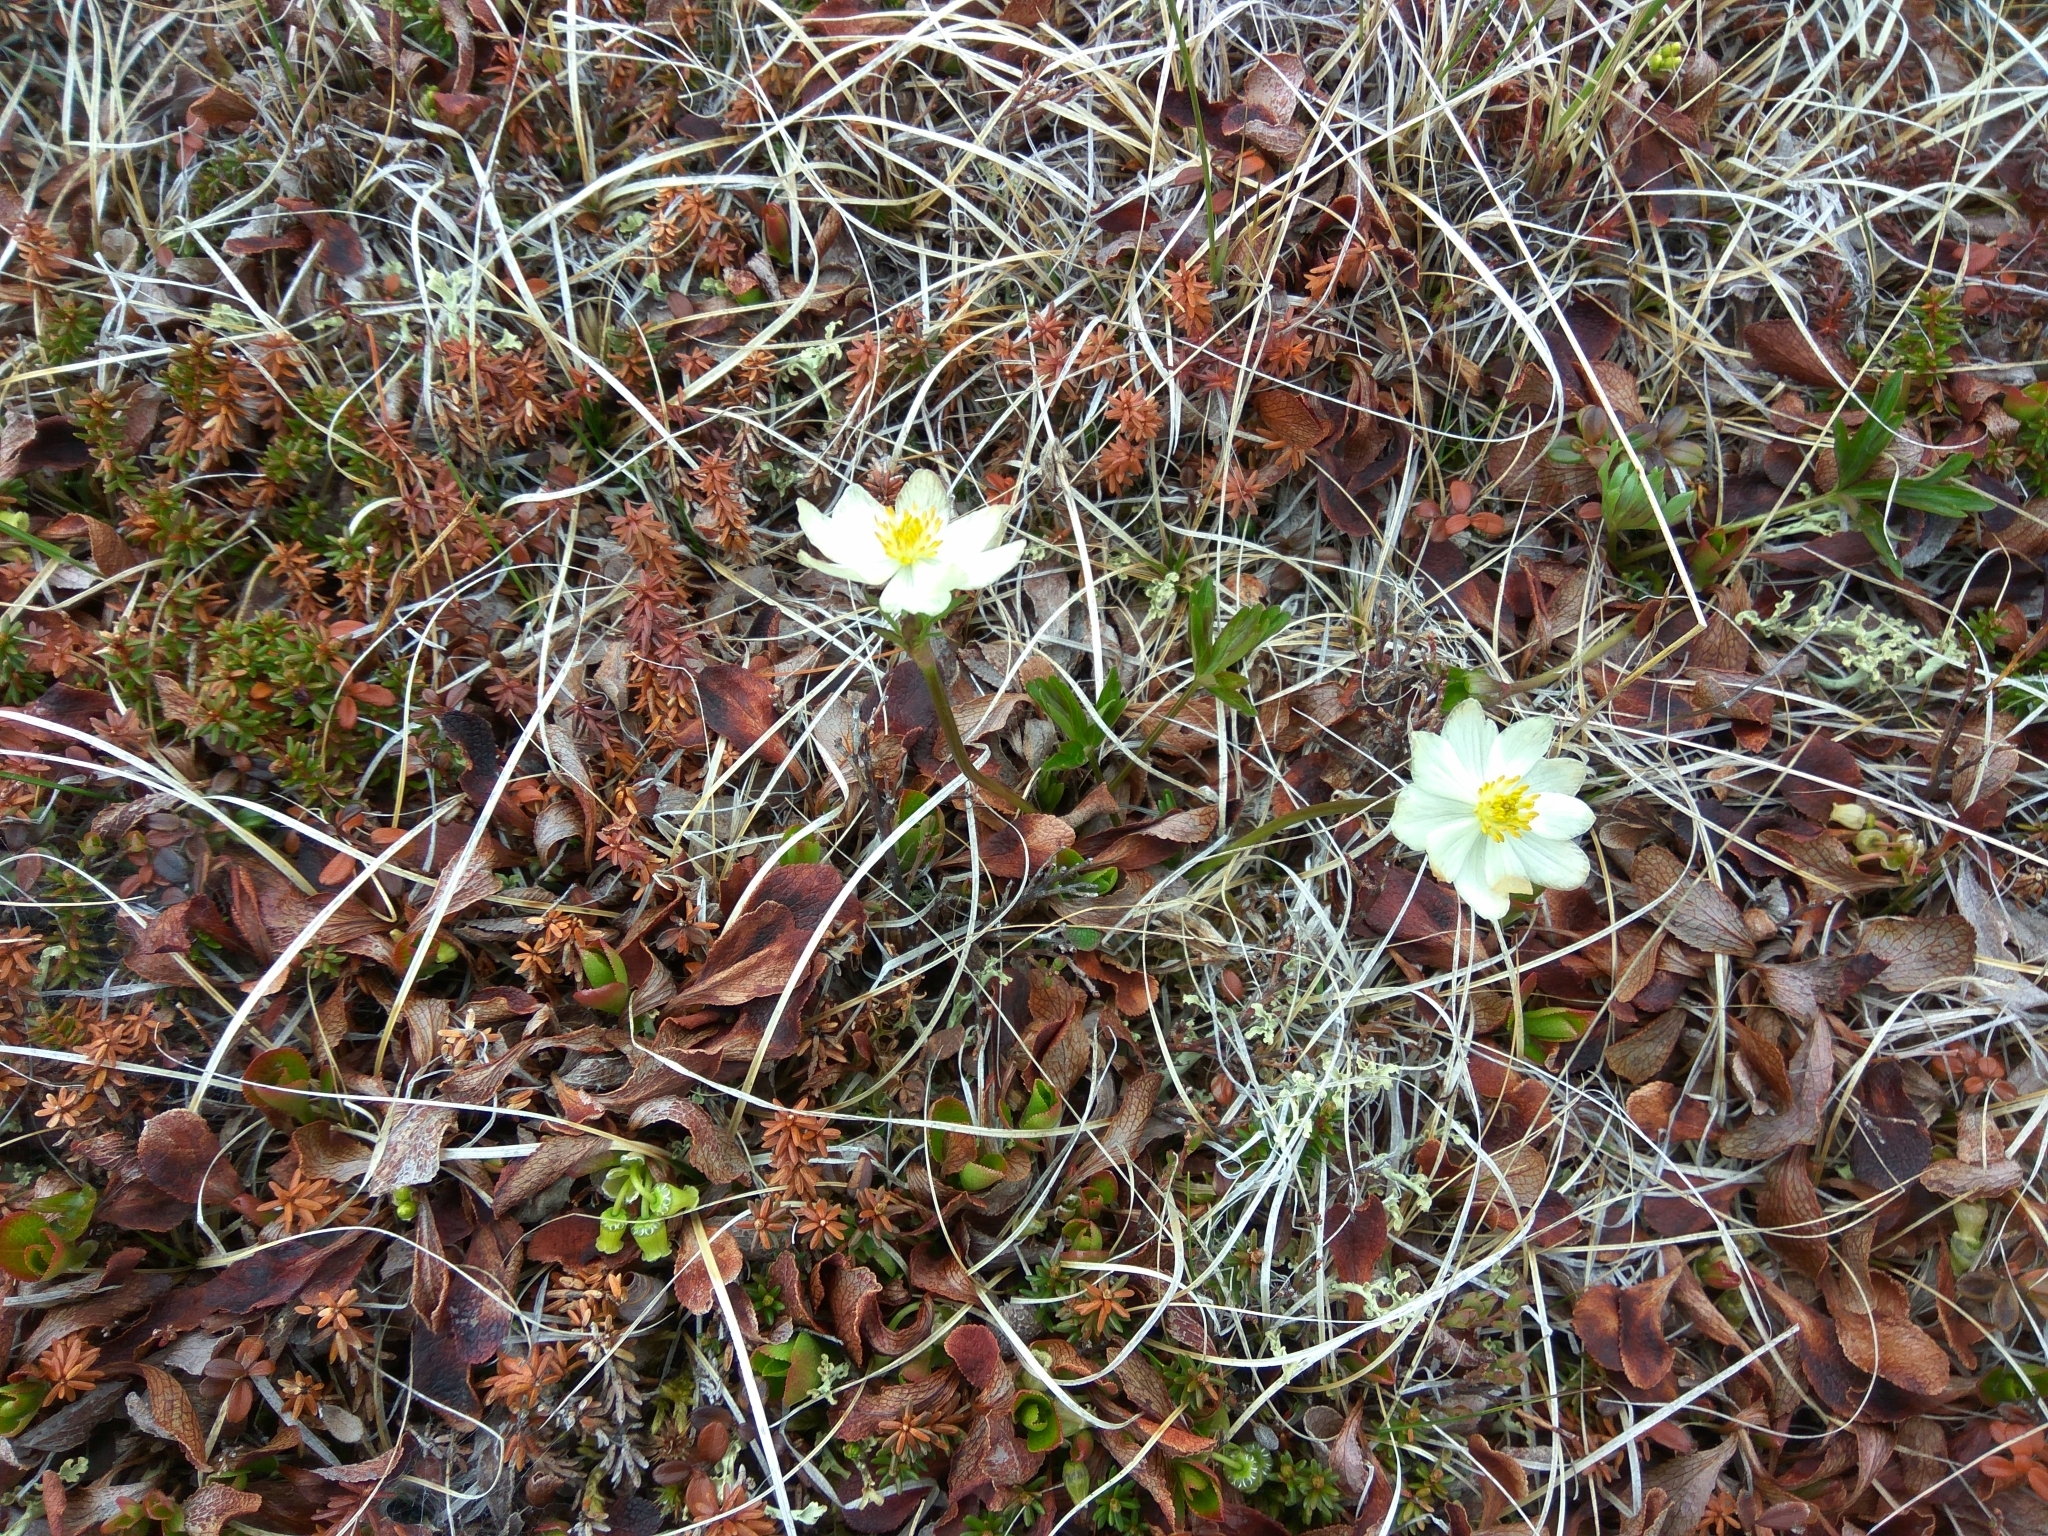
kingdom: Plantae
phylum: Tracheophyta
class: Magnoliopsida
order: Ranunculales
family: Ranunculaceae
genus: Anemonastrum
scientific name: Anemonastrum narcissiflorum
